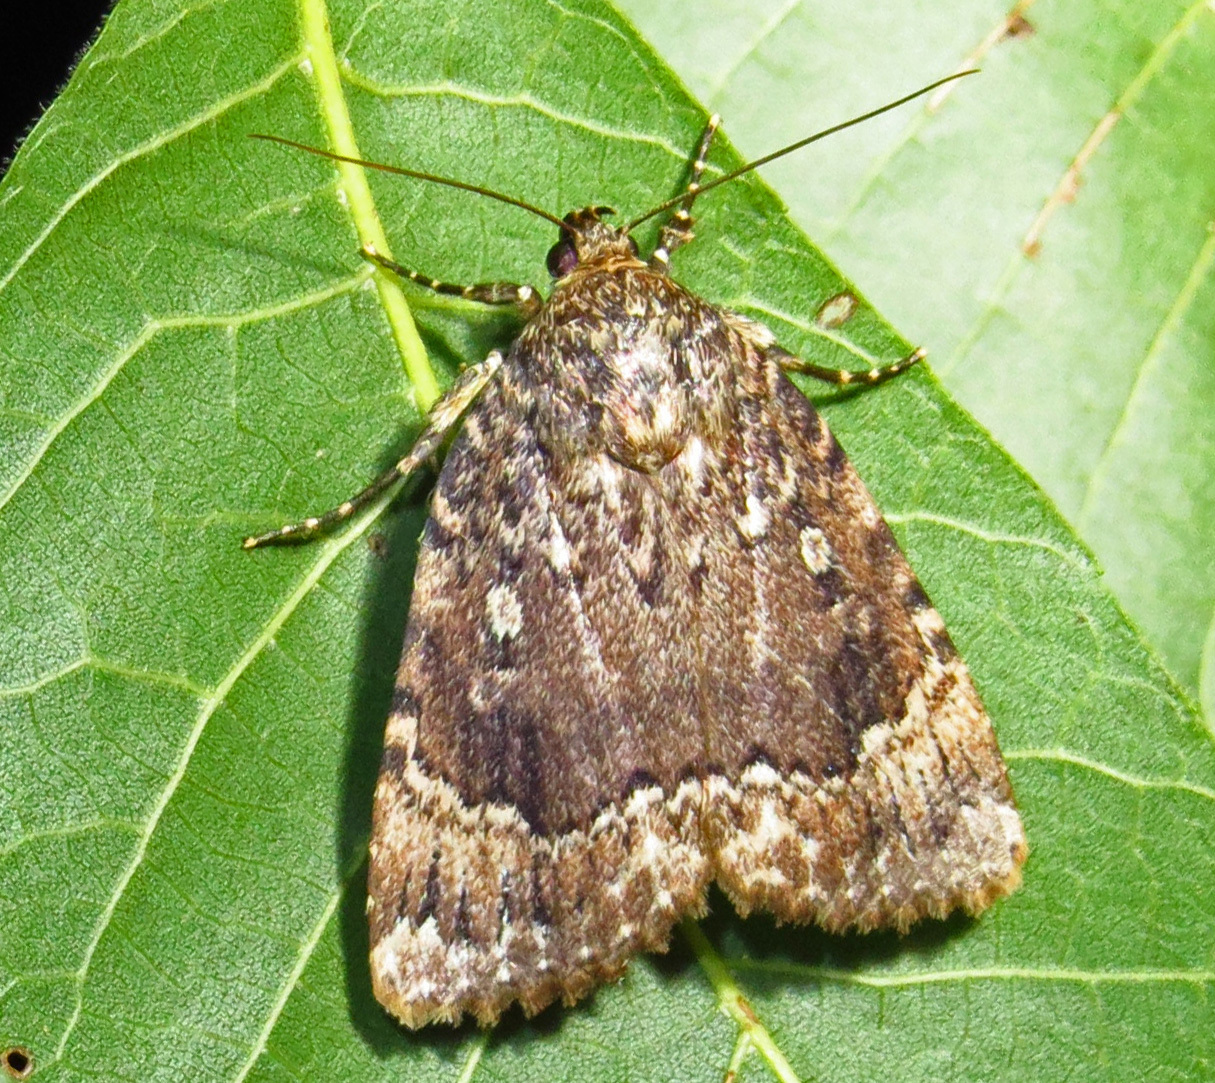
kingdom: Animalia
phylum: Arthropoda
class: Insecta
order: Lepidoptera
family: Noctuidae
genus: Amphipyra
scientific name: Amphipyra pyramidoides
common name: American copper underwing
